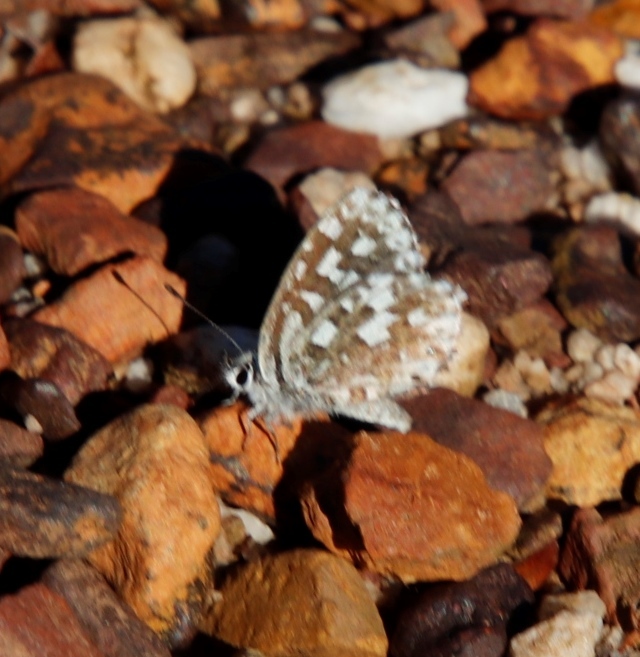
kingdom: Animalia
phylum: Arthropoda
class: Insecta
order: Lepidoptera
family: Lycaenidae
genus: Tarucus
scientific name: Tarucus thespis
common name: Vivid dotted blue
